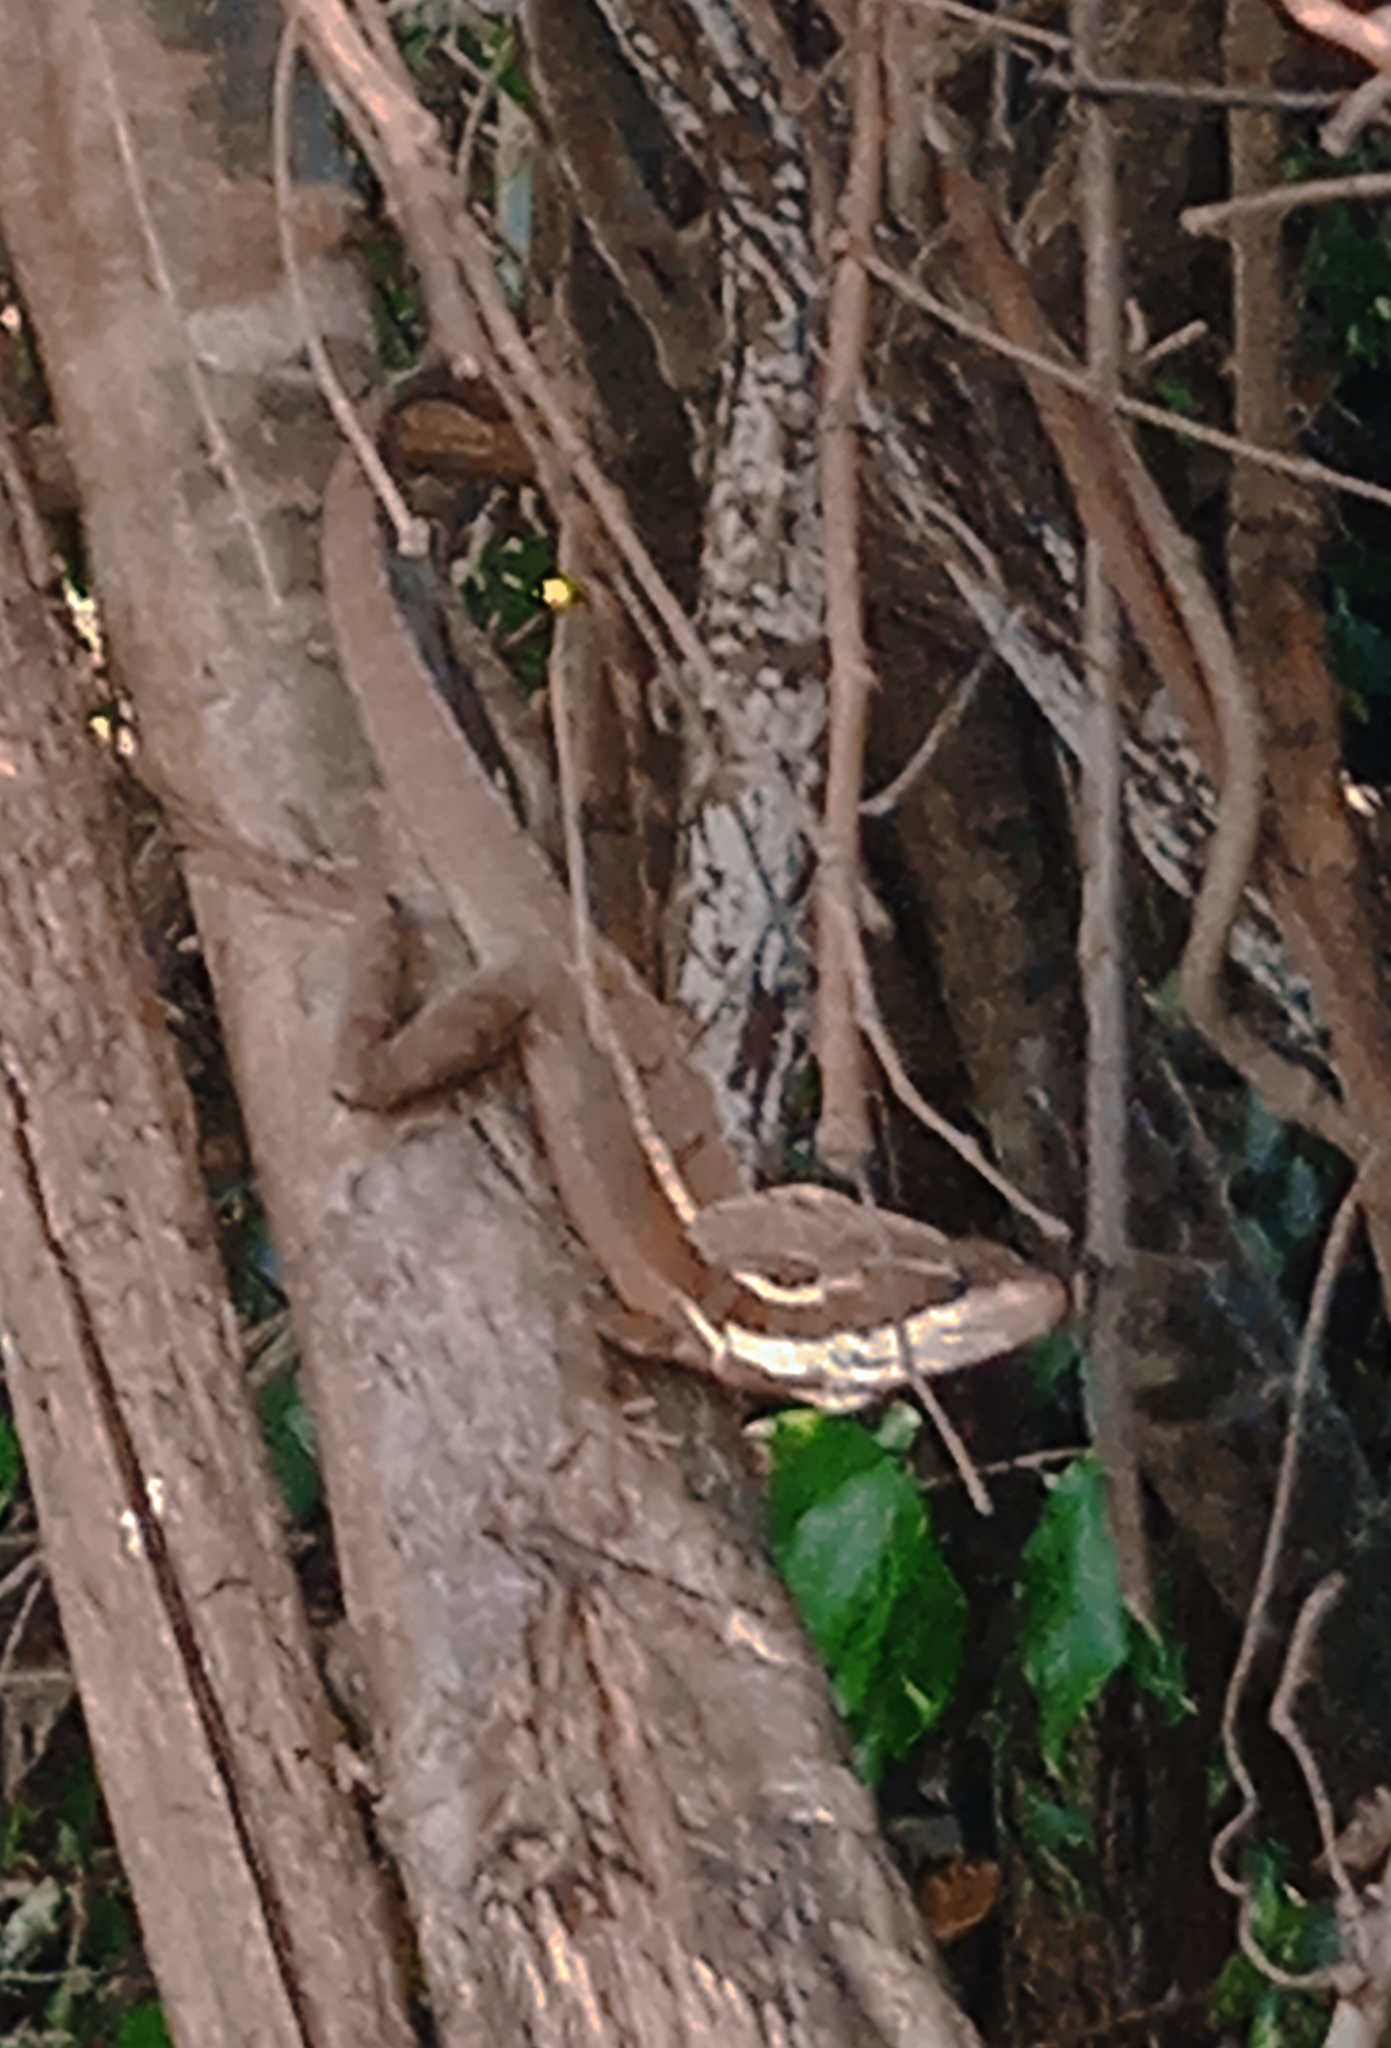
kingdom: Animalia
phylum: Chordata
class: Squamata
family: Corytophanidae
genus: Basiliscus
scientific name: Basiliscus vittatus
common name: Brown basilisk
